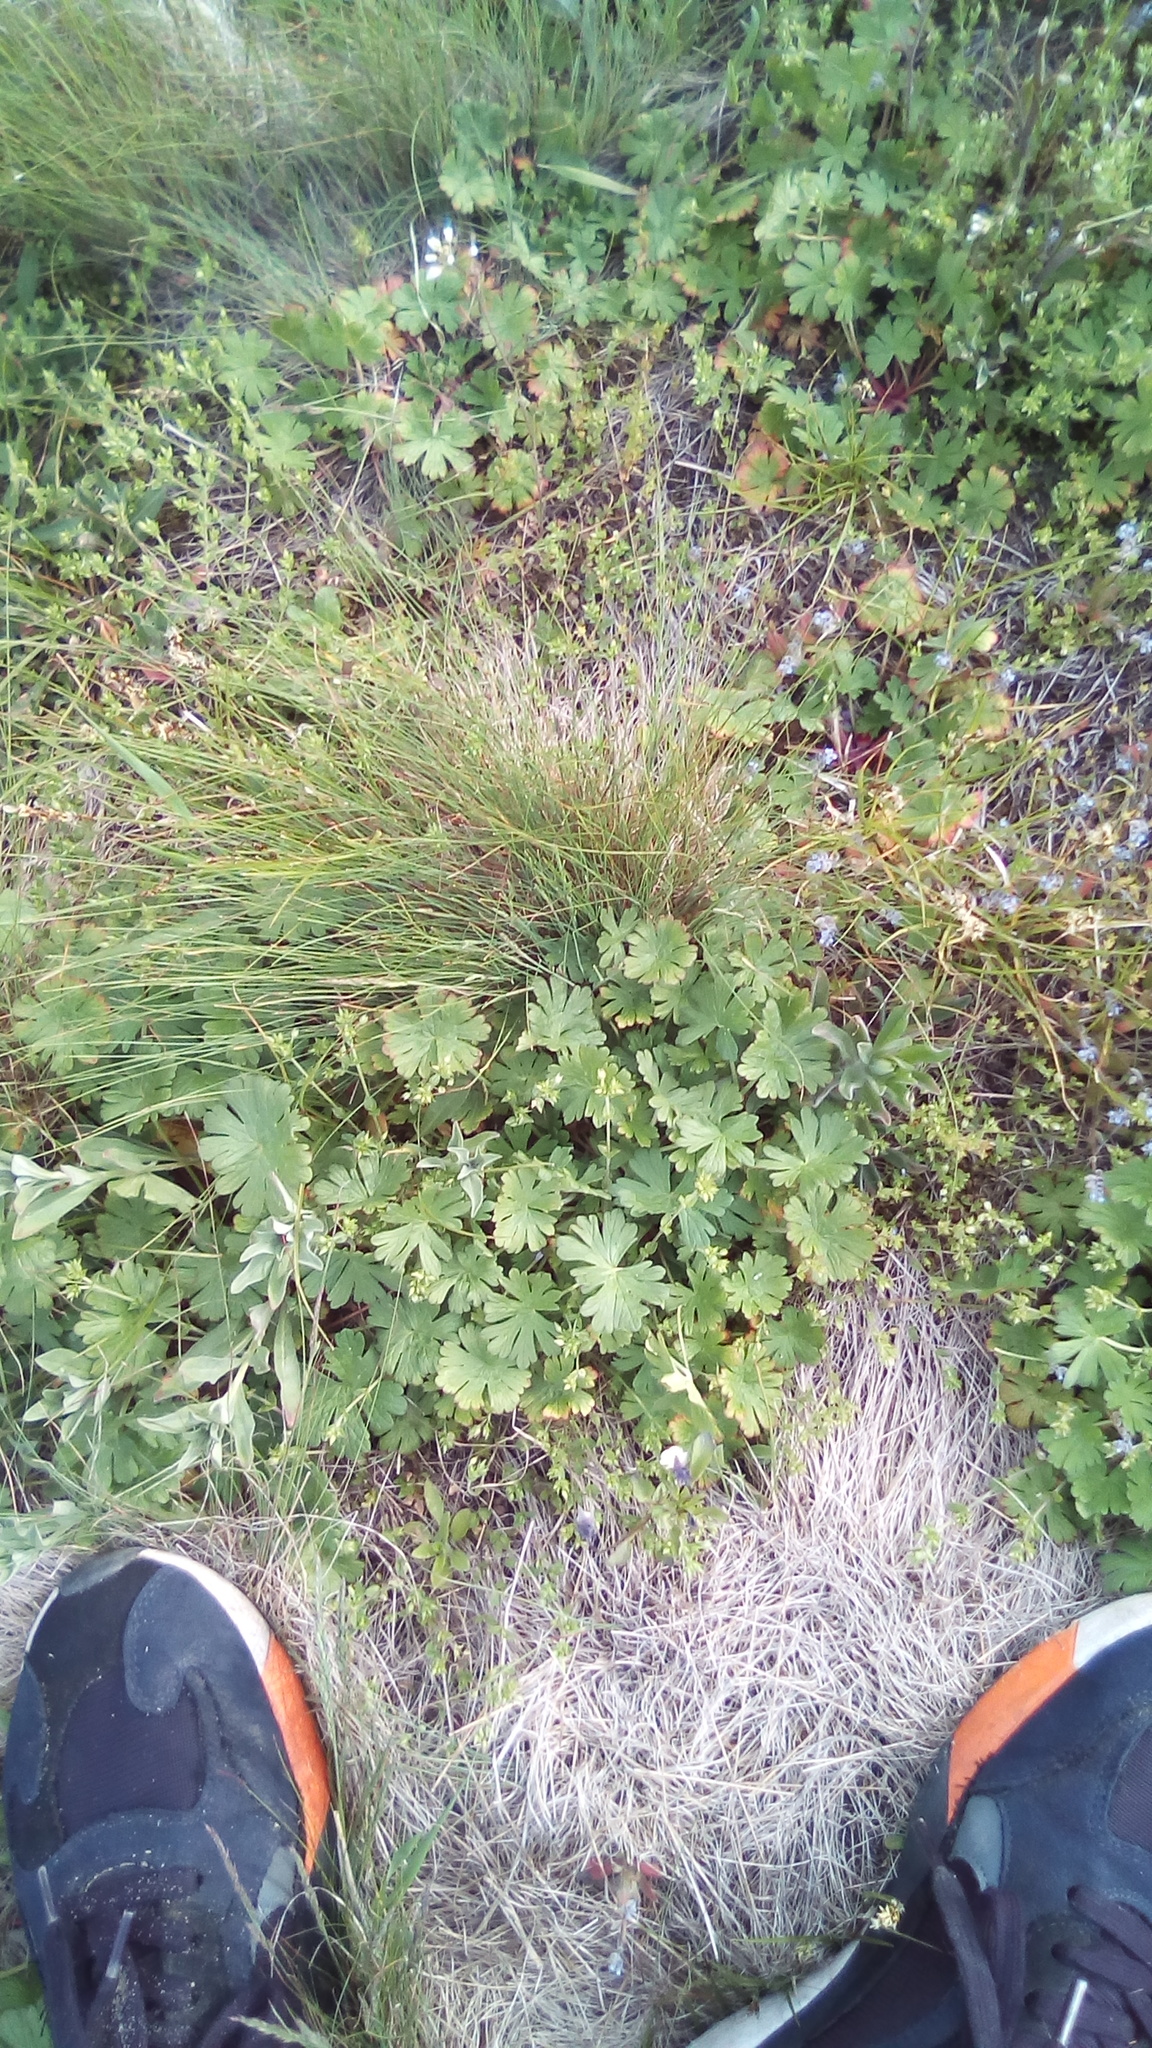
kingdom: Plantae
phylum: Tracheophyta
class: Magnoliopsida
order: Geraniales
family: Geraniaceae
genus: Geranium
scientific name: Geranium pusillum
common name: Small geranium
